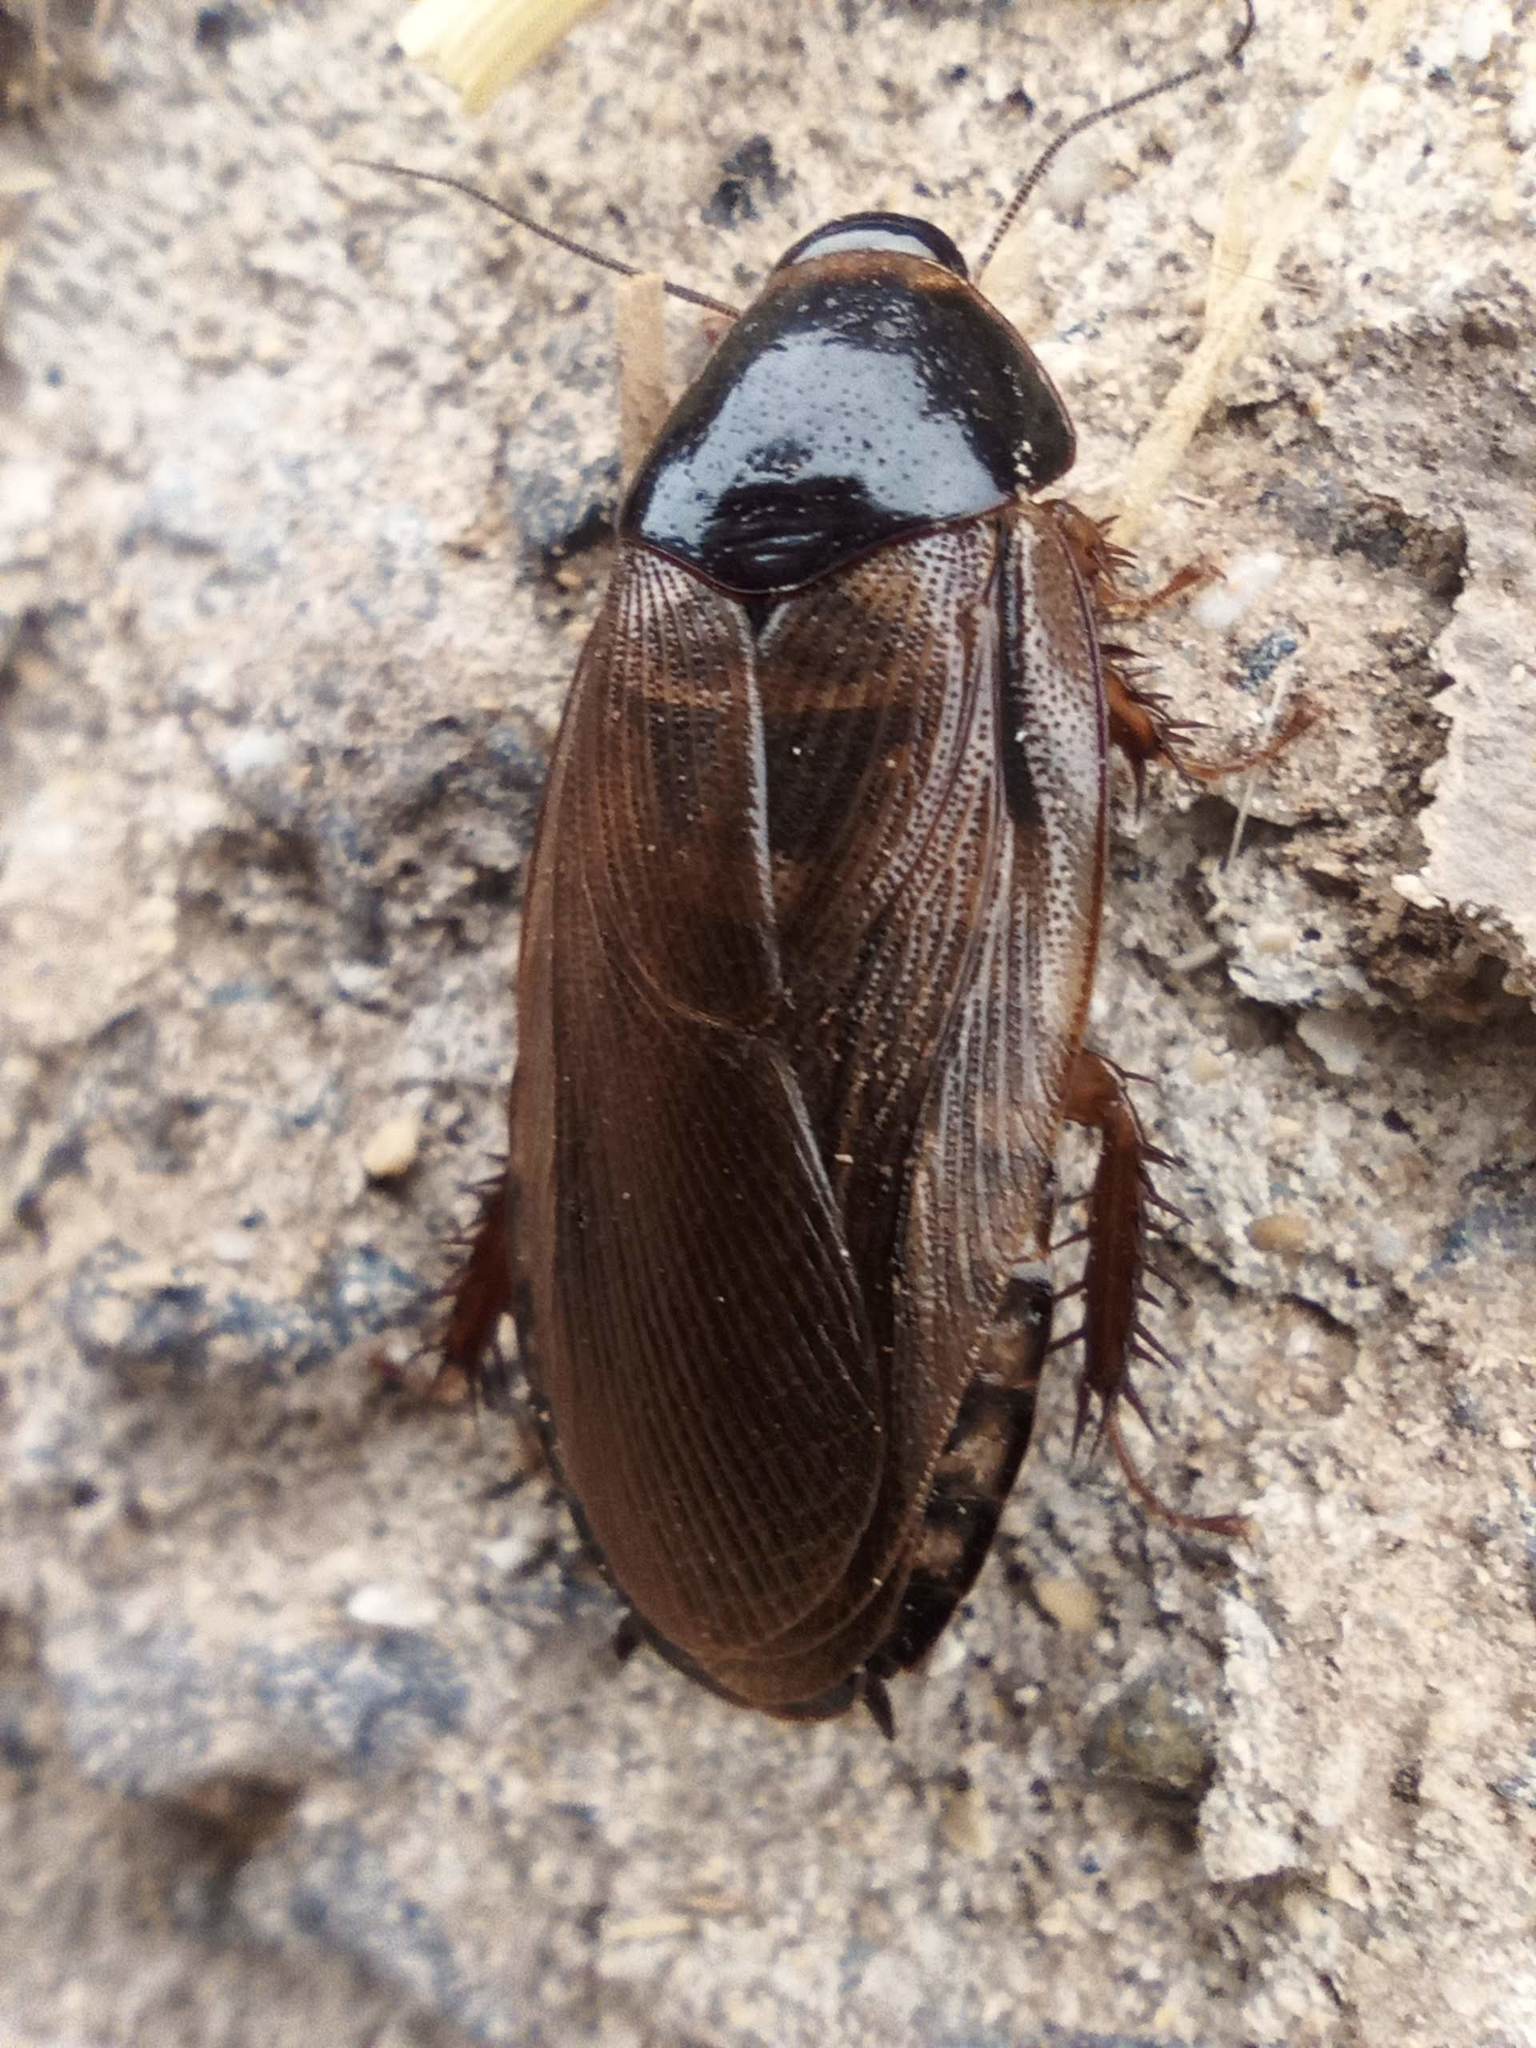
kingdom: Animalia
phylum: Arthropoda
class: Insecta
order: Blattodea
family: Blaberidae
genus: Pycnoscelus
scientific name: Pycnoscelus surinamensis
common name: Surinam cockroach
